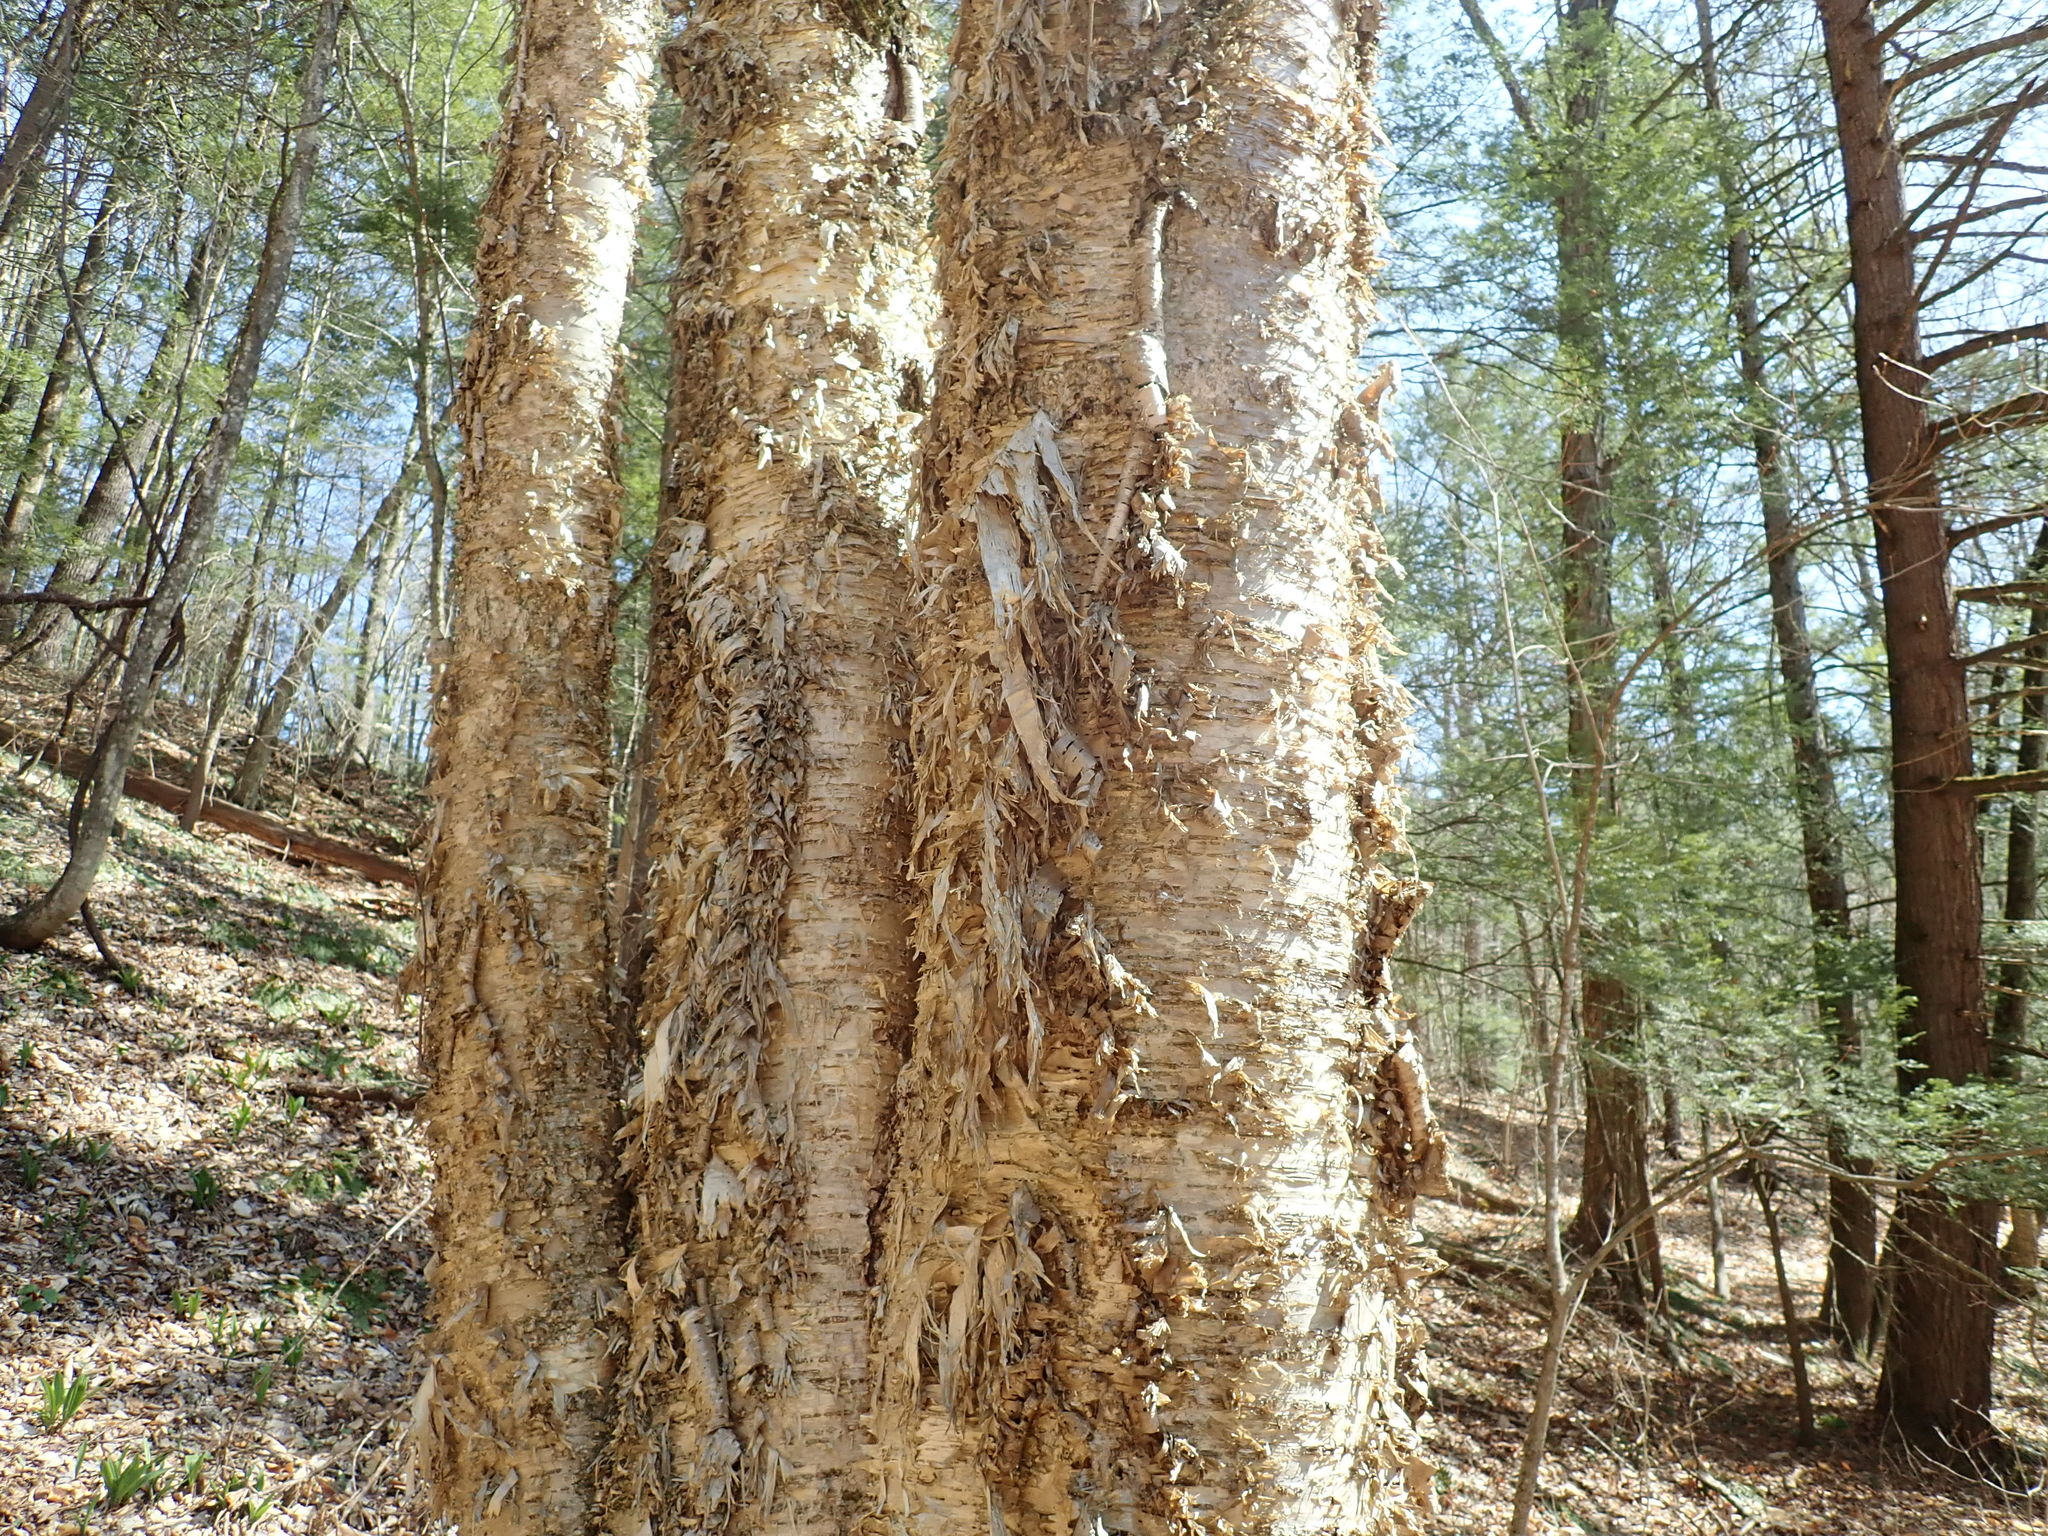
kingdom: Plantae
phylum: Tracheophyta
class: Magnoliopsida
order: Fagales
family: Betulaceae
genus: Betula
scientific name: Betula alleghaniensis
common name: Yellow birch
